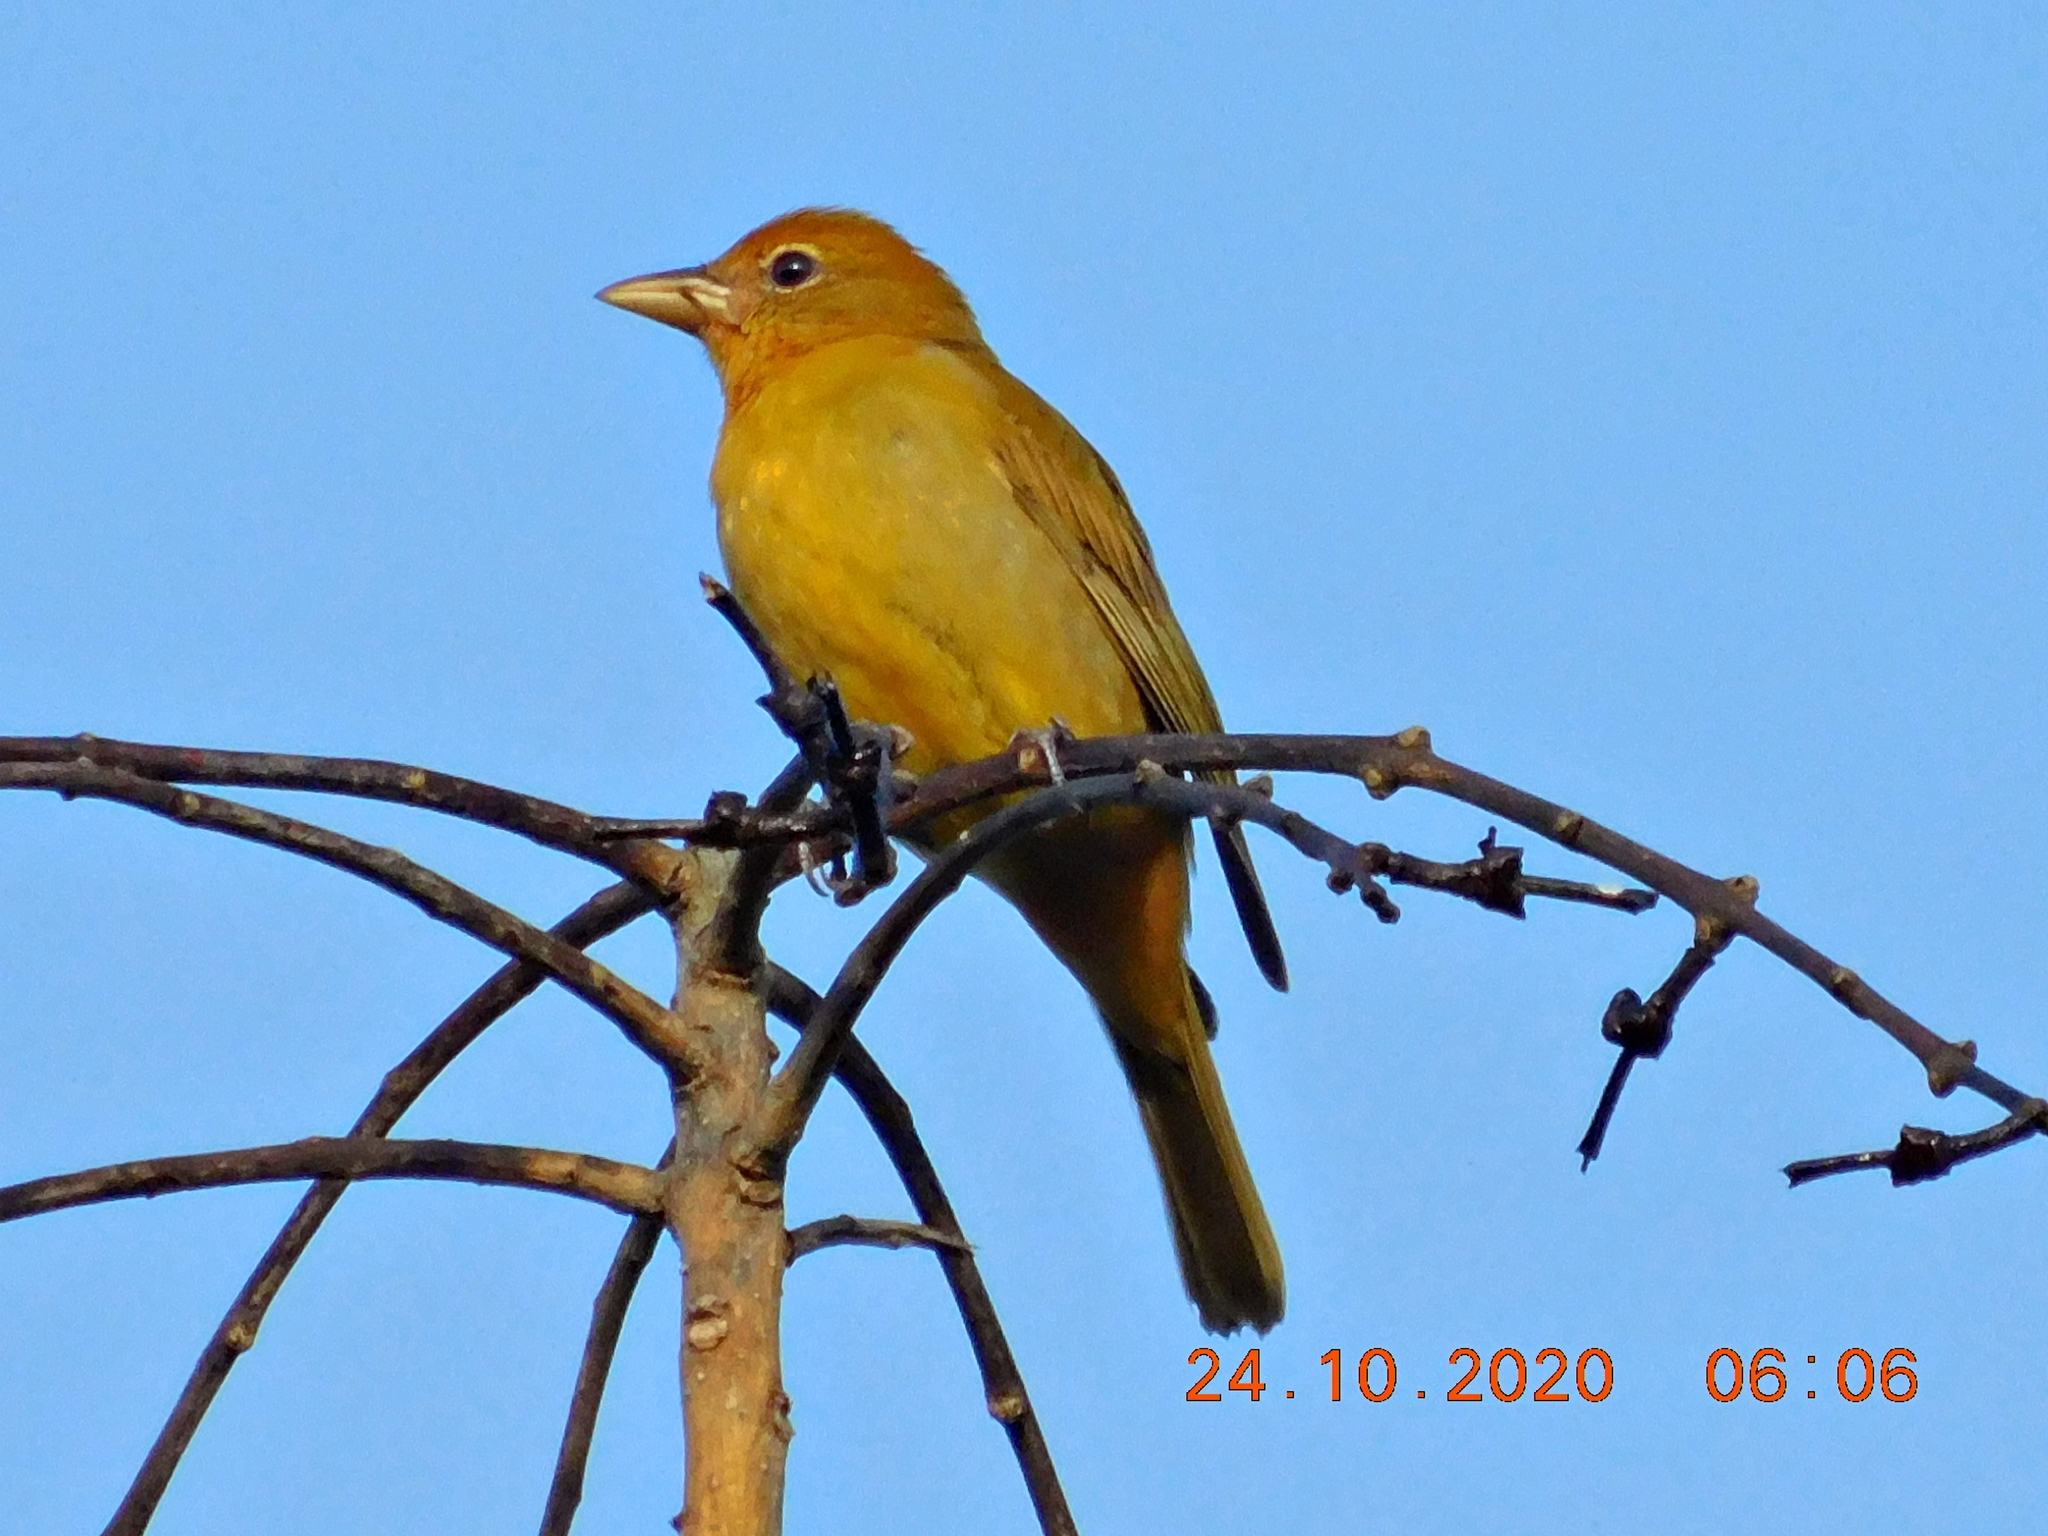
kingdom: Animalia
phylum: Chordata
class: Aves
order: Passeriformes
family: Cardinalidae
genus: Piranga
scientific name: Piranga rubra
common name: Summer tanager
